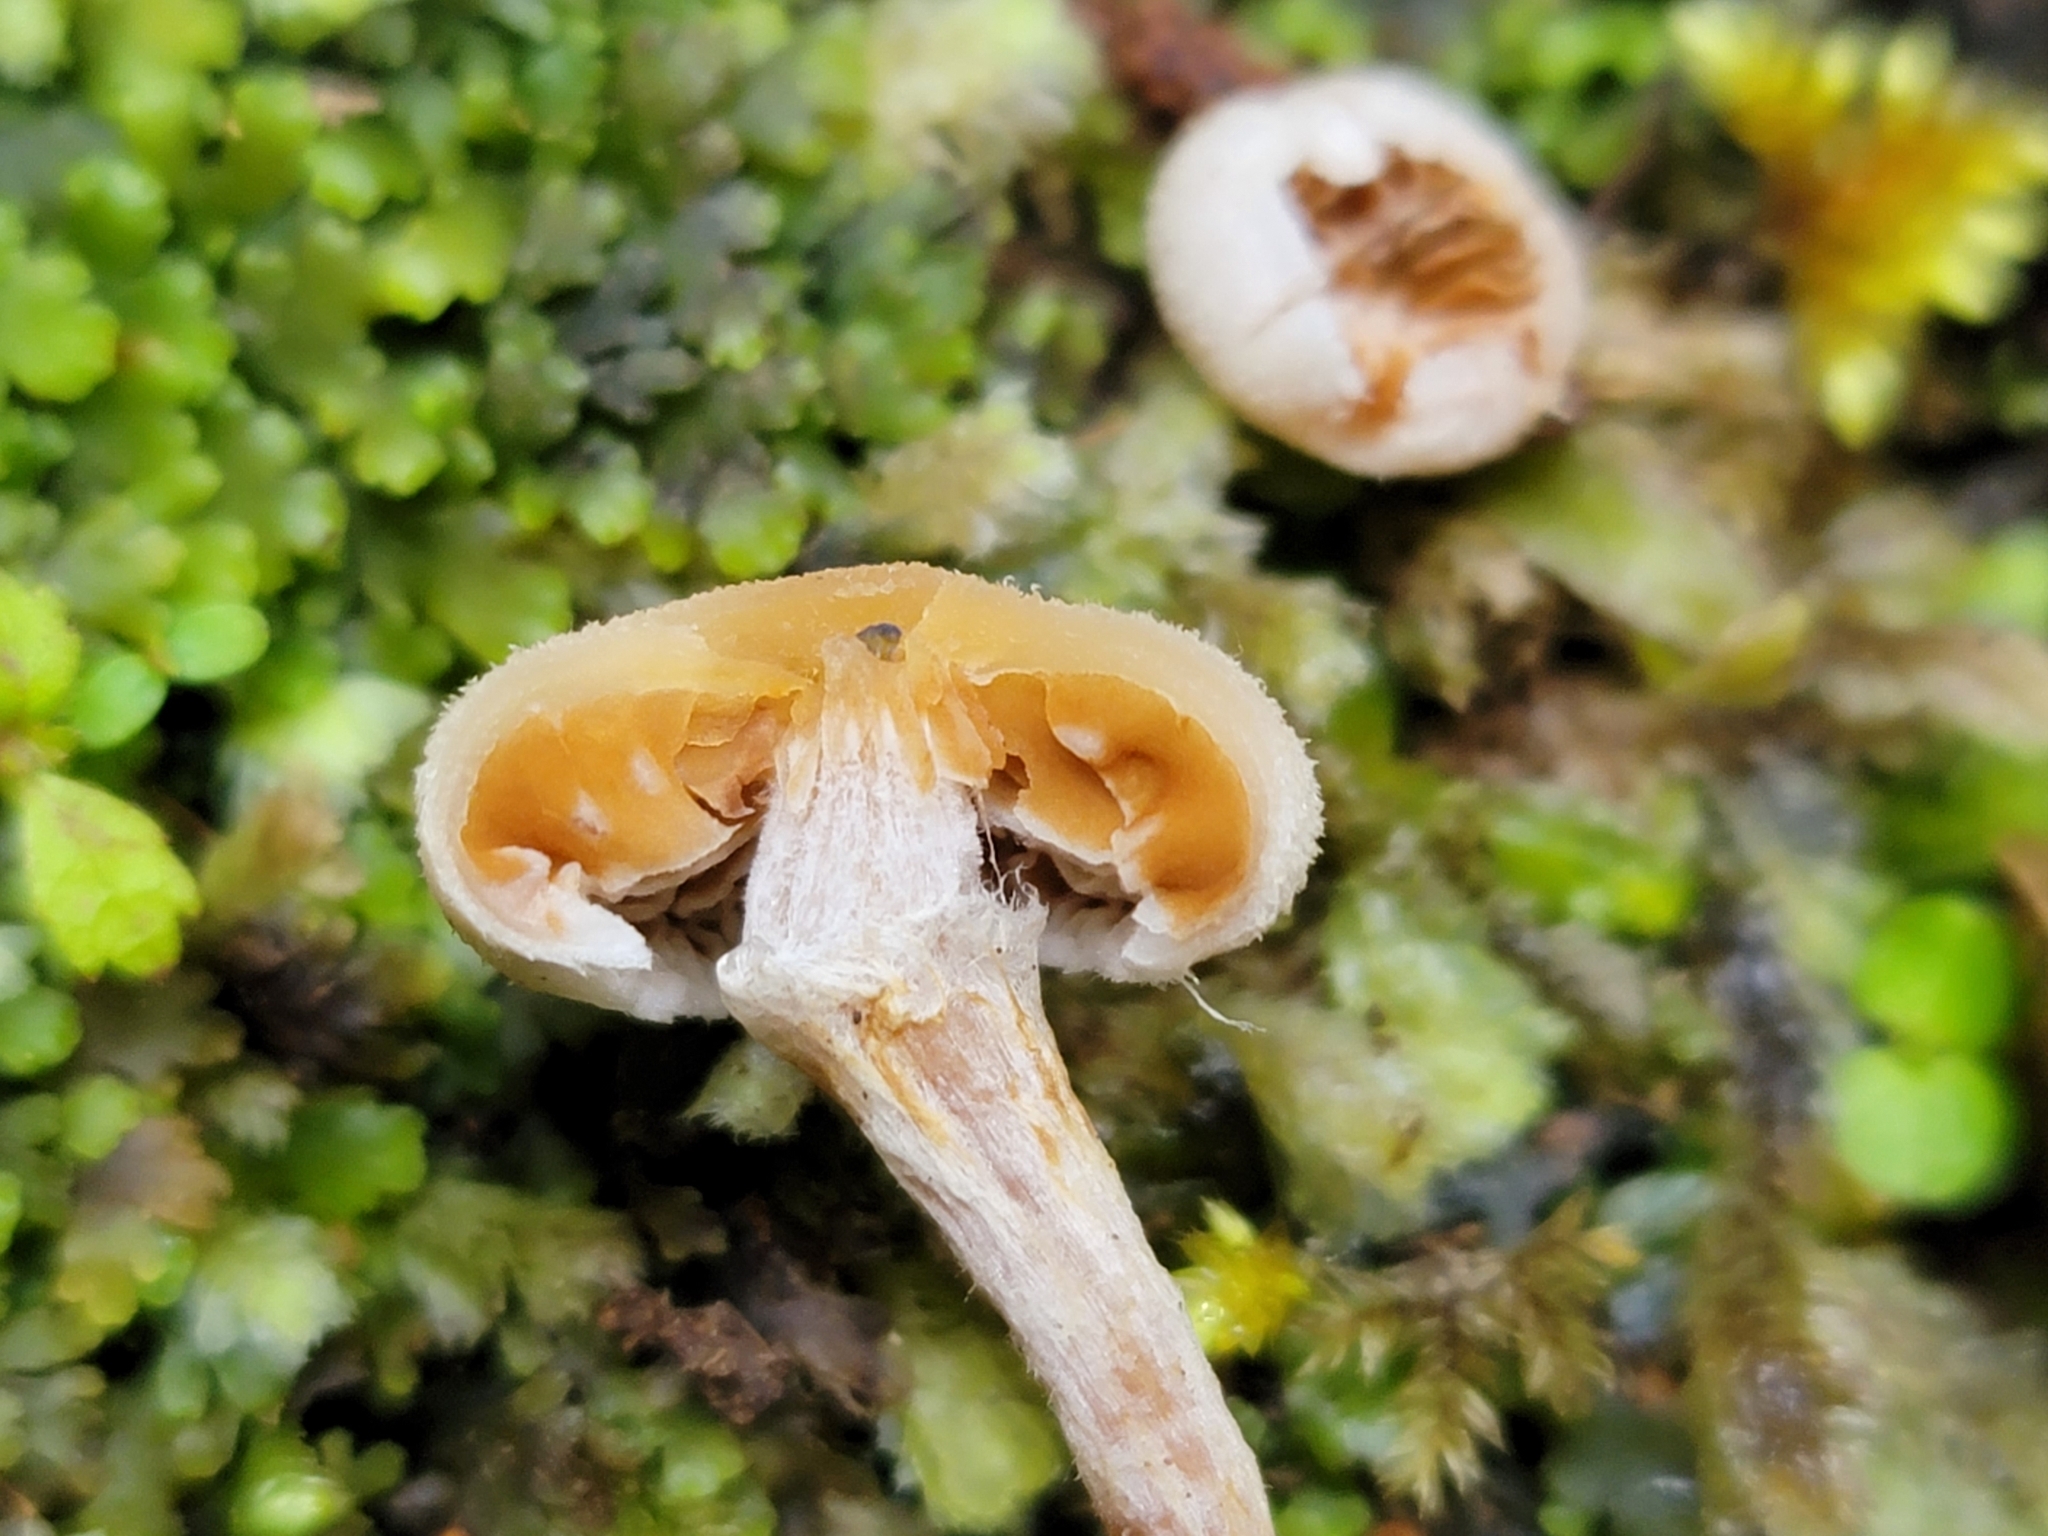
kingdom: Fungi
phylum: Basidiomycota
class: Agaricomycetes
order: Agaricales
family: Bolbitiaceae
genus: Tympanella
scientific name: Tympanella galanthina
